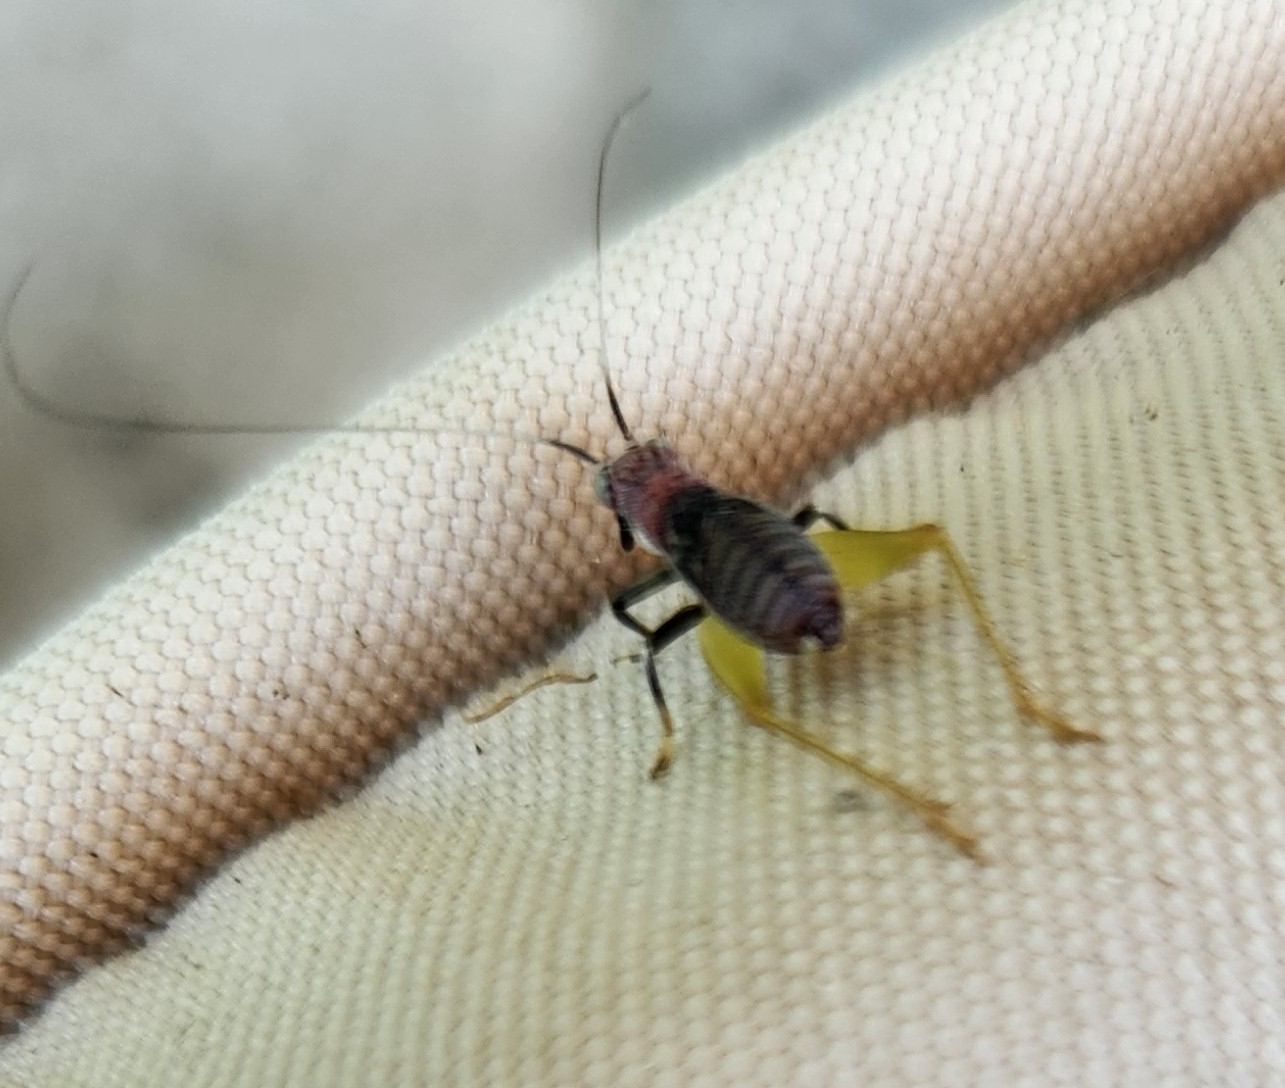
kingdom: Animalia
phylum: Arthropoda
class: Insecta
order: Orthoptera
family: Trigonidiidae
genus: Phyllopalpus
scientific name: Phyllopalpus pulchellus
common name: Handsome trig
